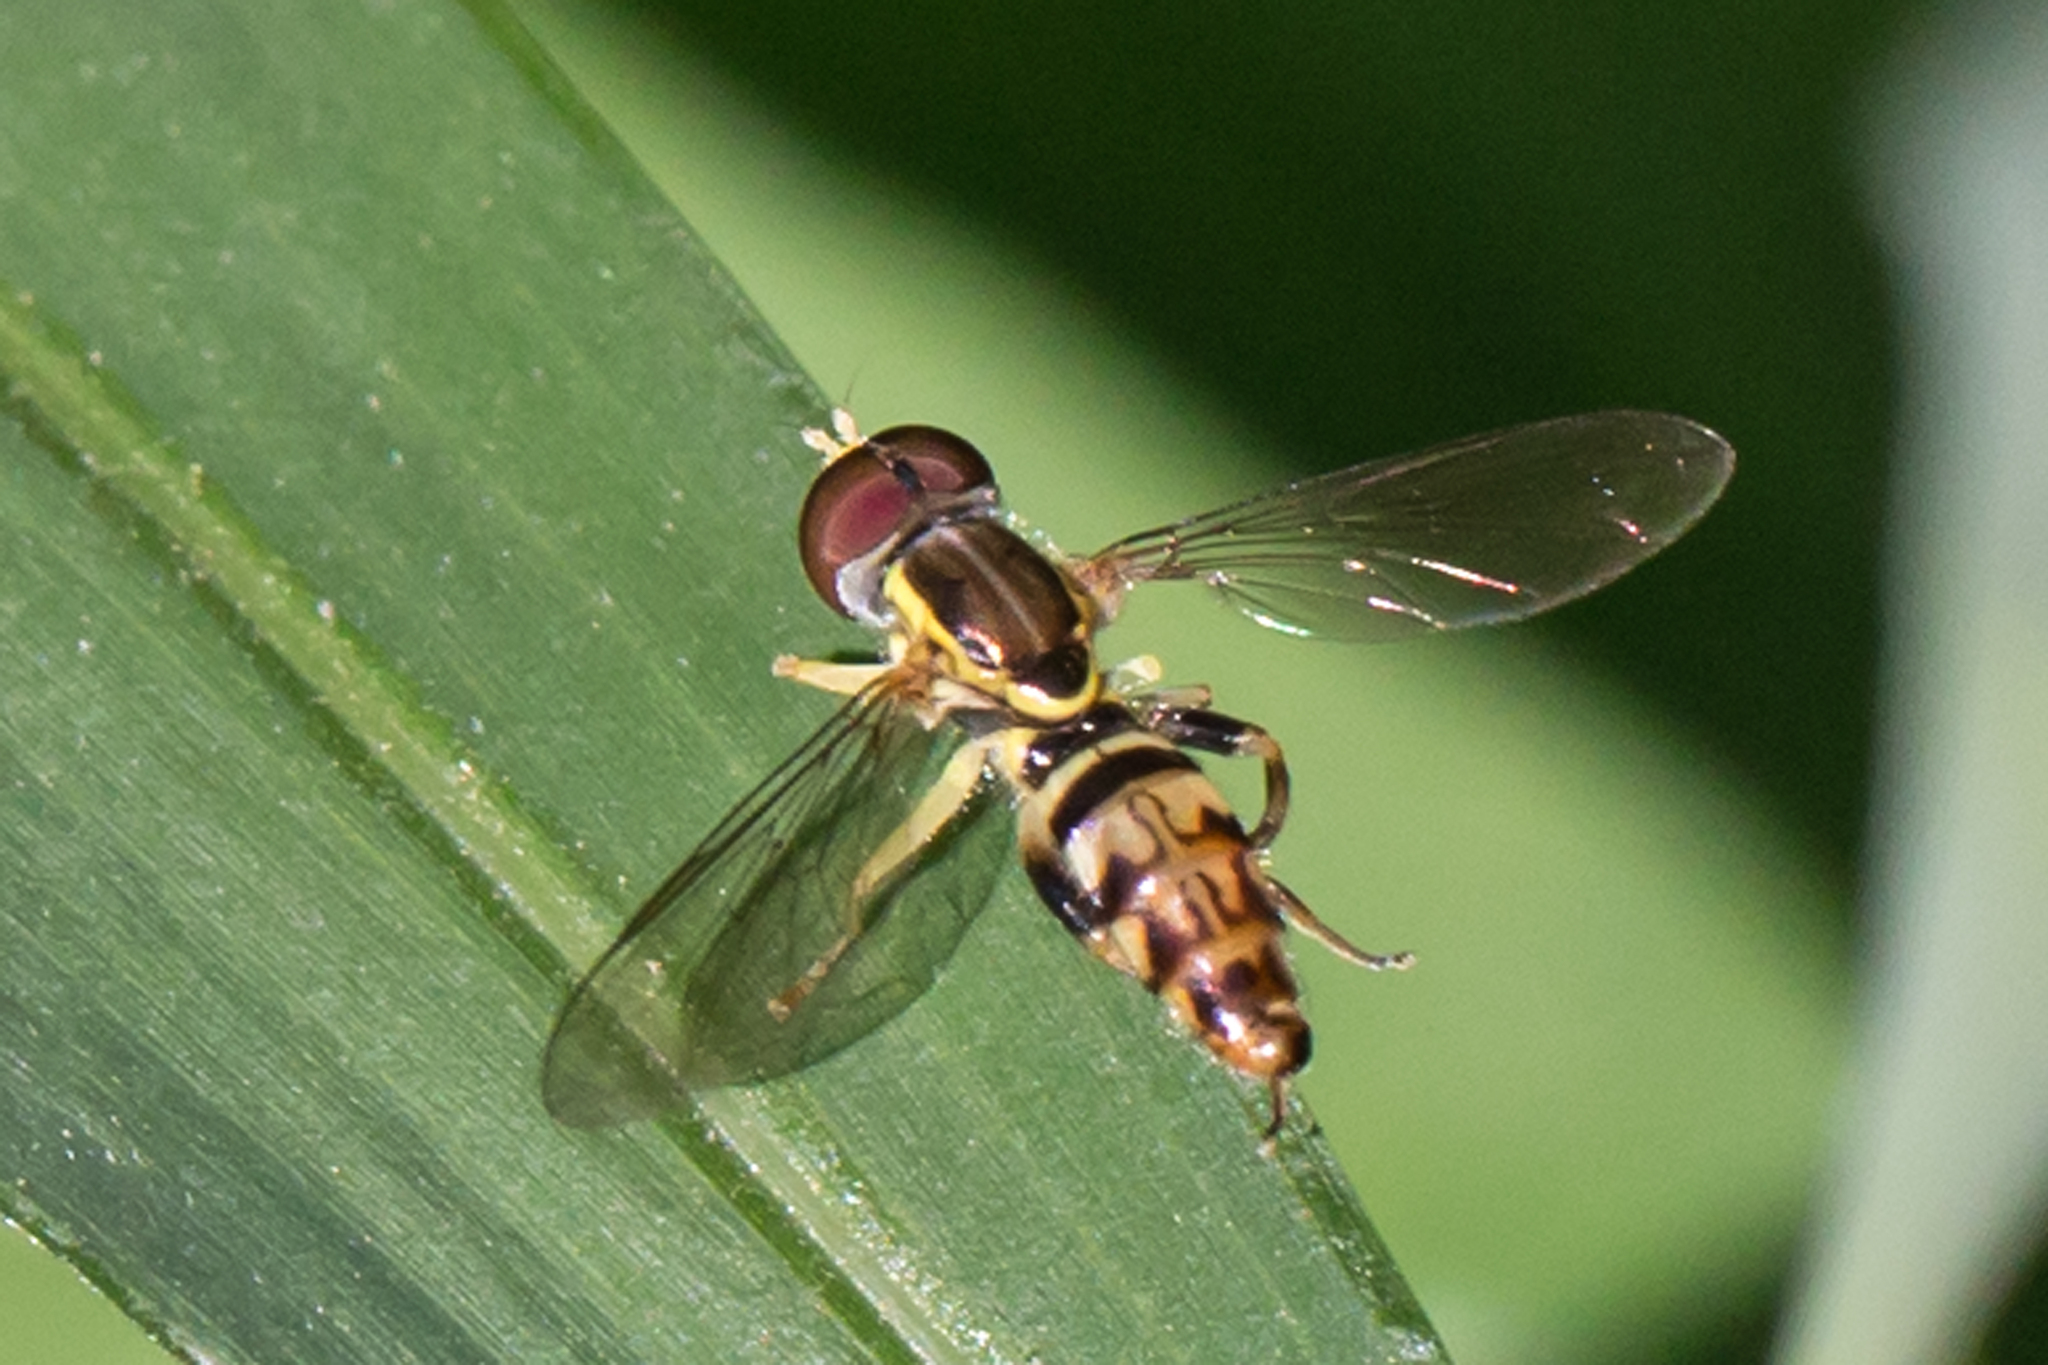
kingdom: Animalia
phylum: Arthropoda
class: Insecta
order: Diptera
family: Syrphidae
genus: Toxomerus
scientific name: Toxomerus geminatus
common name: Eastern calligrapher
